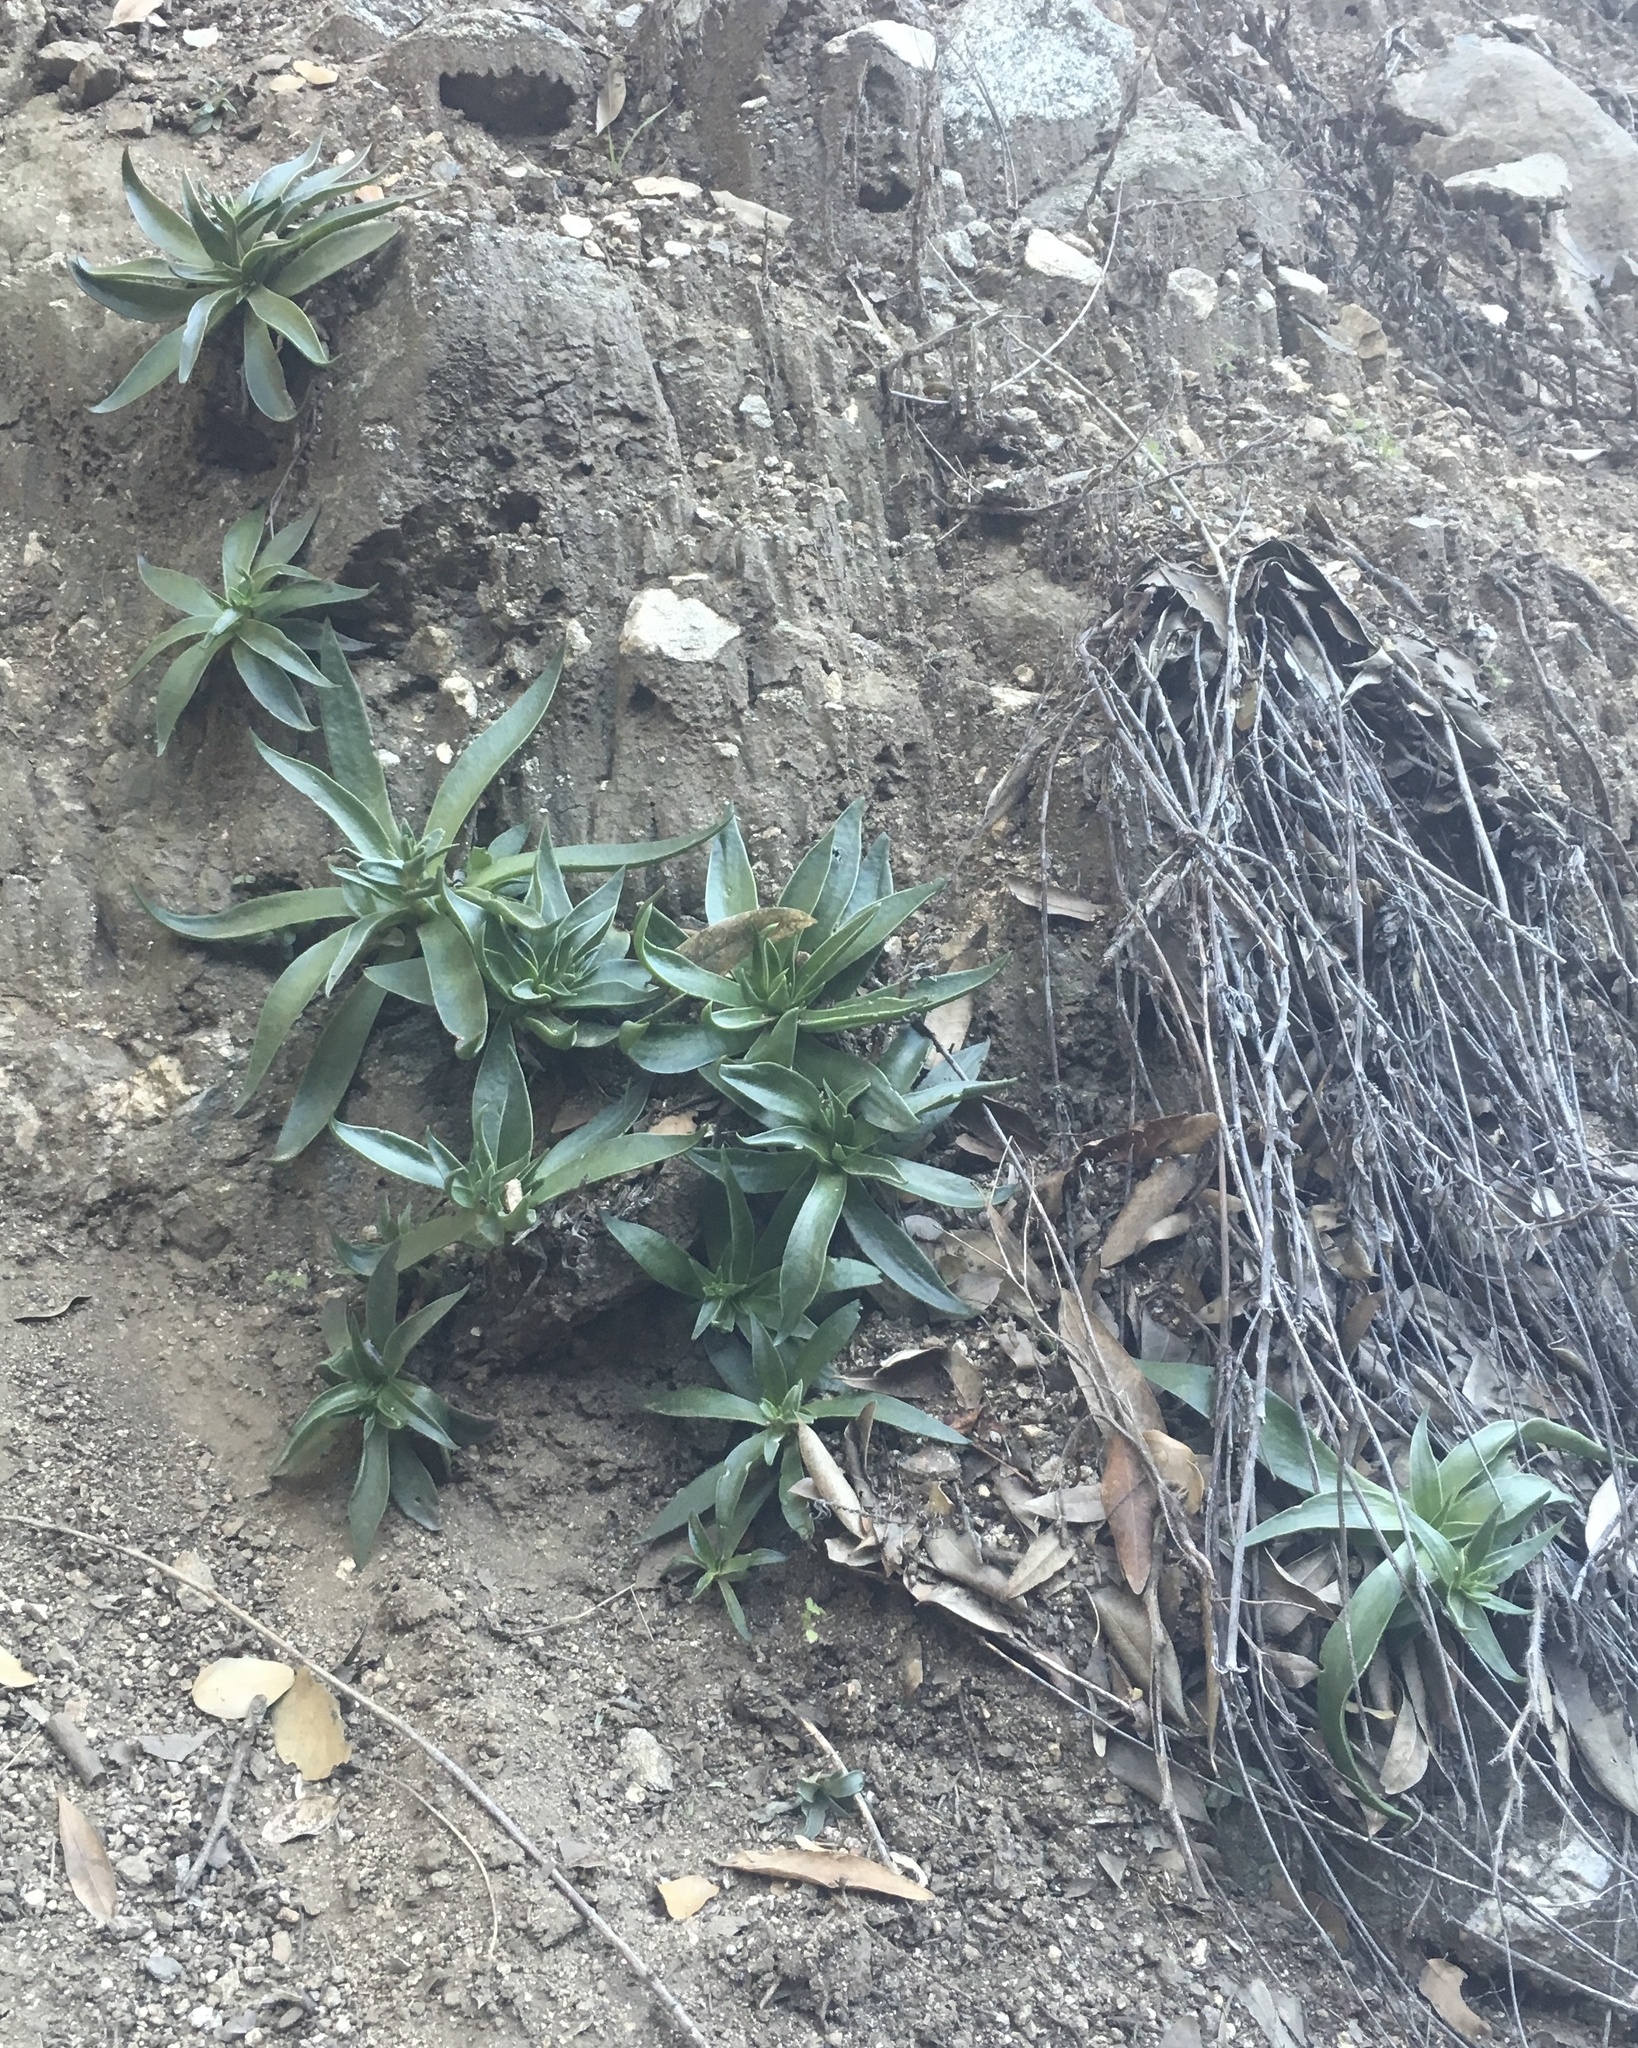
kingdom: Plantae
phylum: Tracheophyta
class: Magnoliopsida
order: Saxifragales
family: Crassulaceae
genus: Dudleya
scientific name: Dudleya lanceolata
